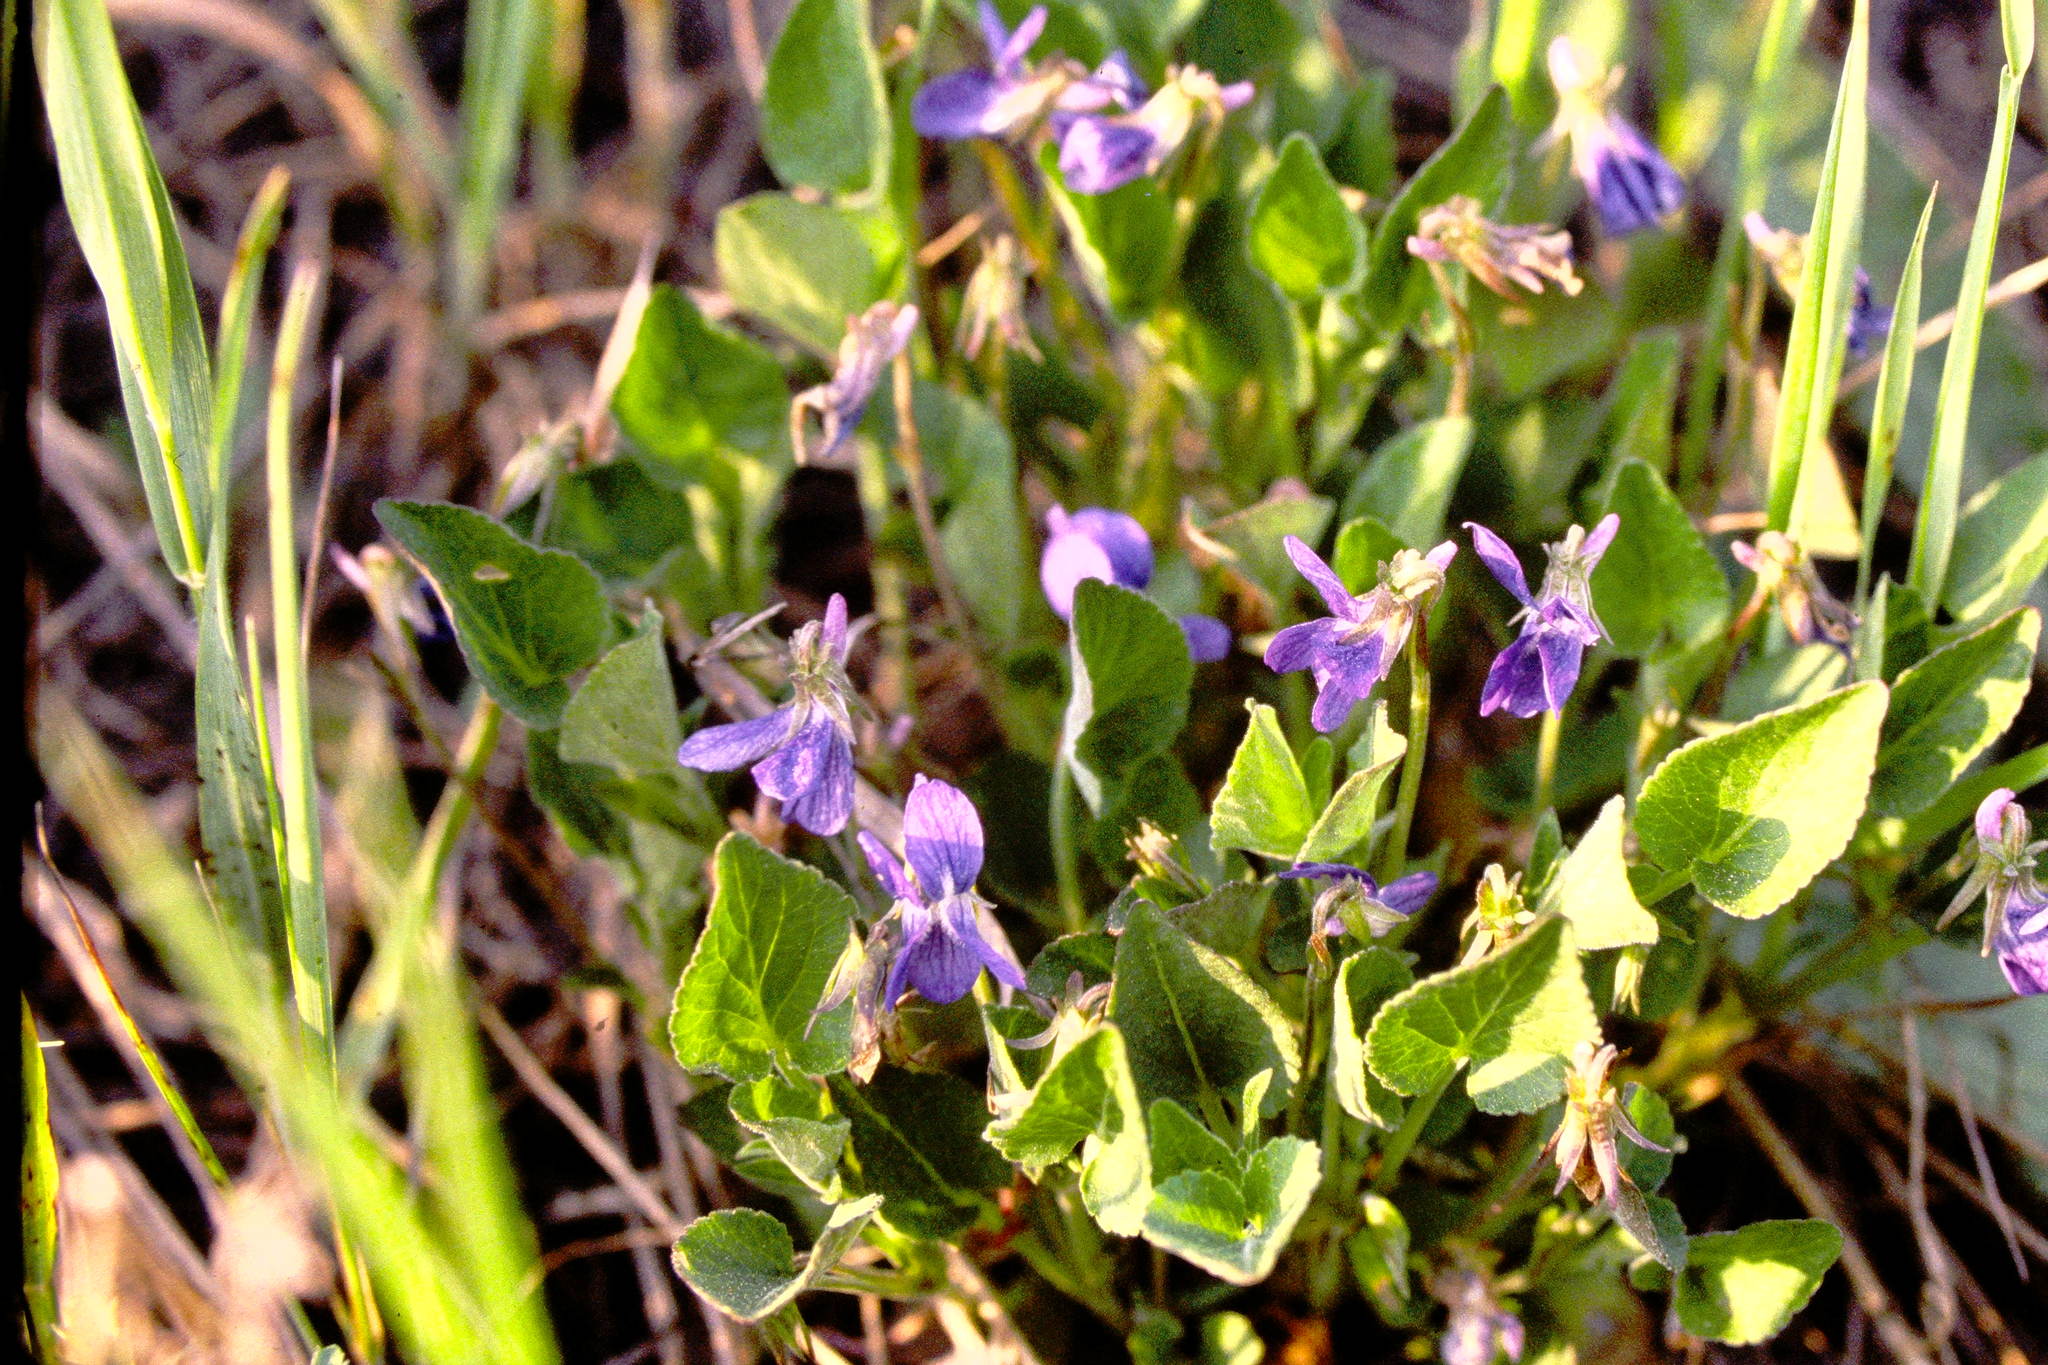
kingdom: Plantae
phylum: Tracheophyta
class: Magnoliopsida
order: Malpighiales
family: Violaceae
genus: Viola
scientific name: Viola adunca
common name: Sand violet
